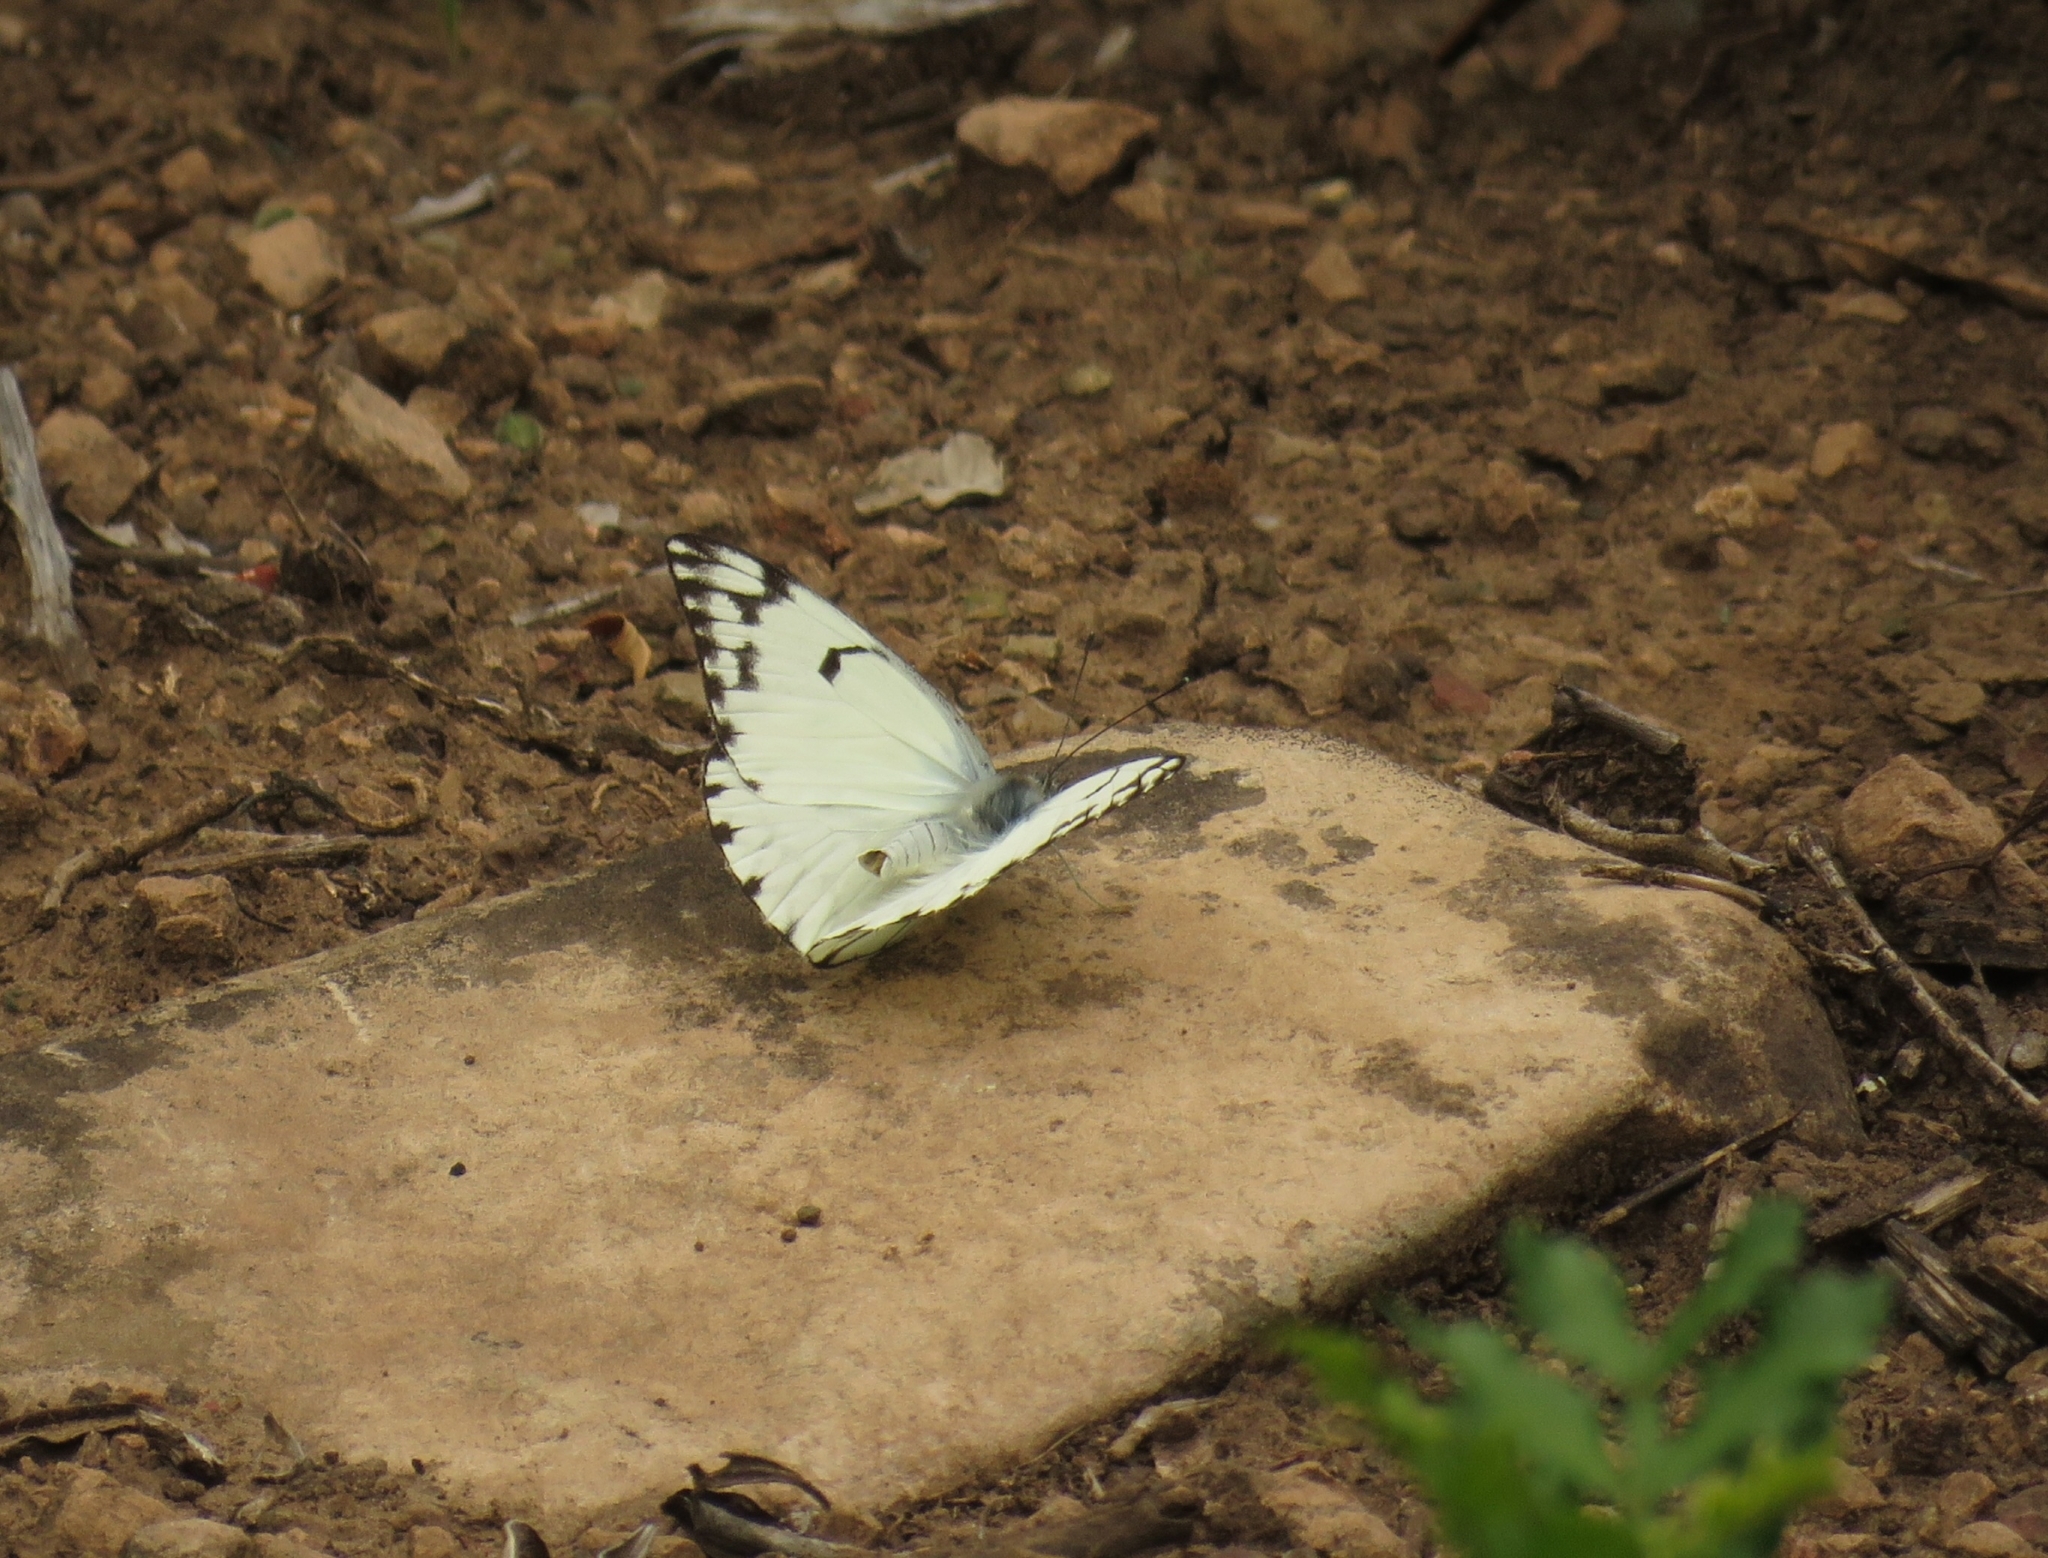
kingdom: Animalia
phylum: Arthropoda
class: Insecta
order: Lepidoptera
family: Pieridae
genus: Belenois
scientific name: Belenois gidica
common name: Pointed caper white
